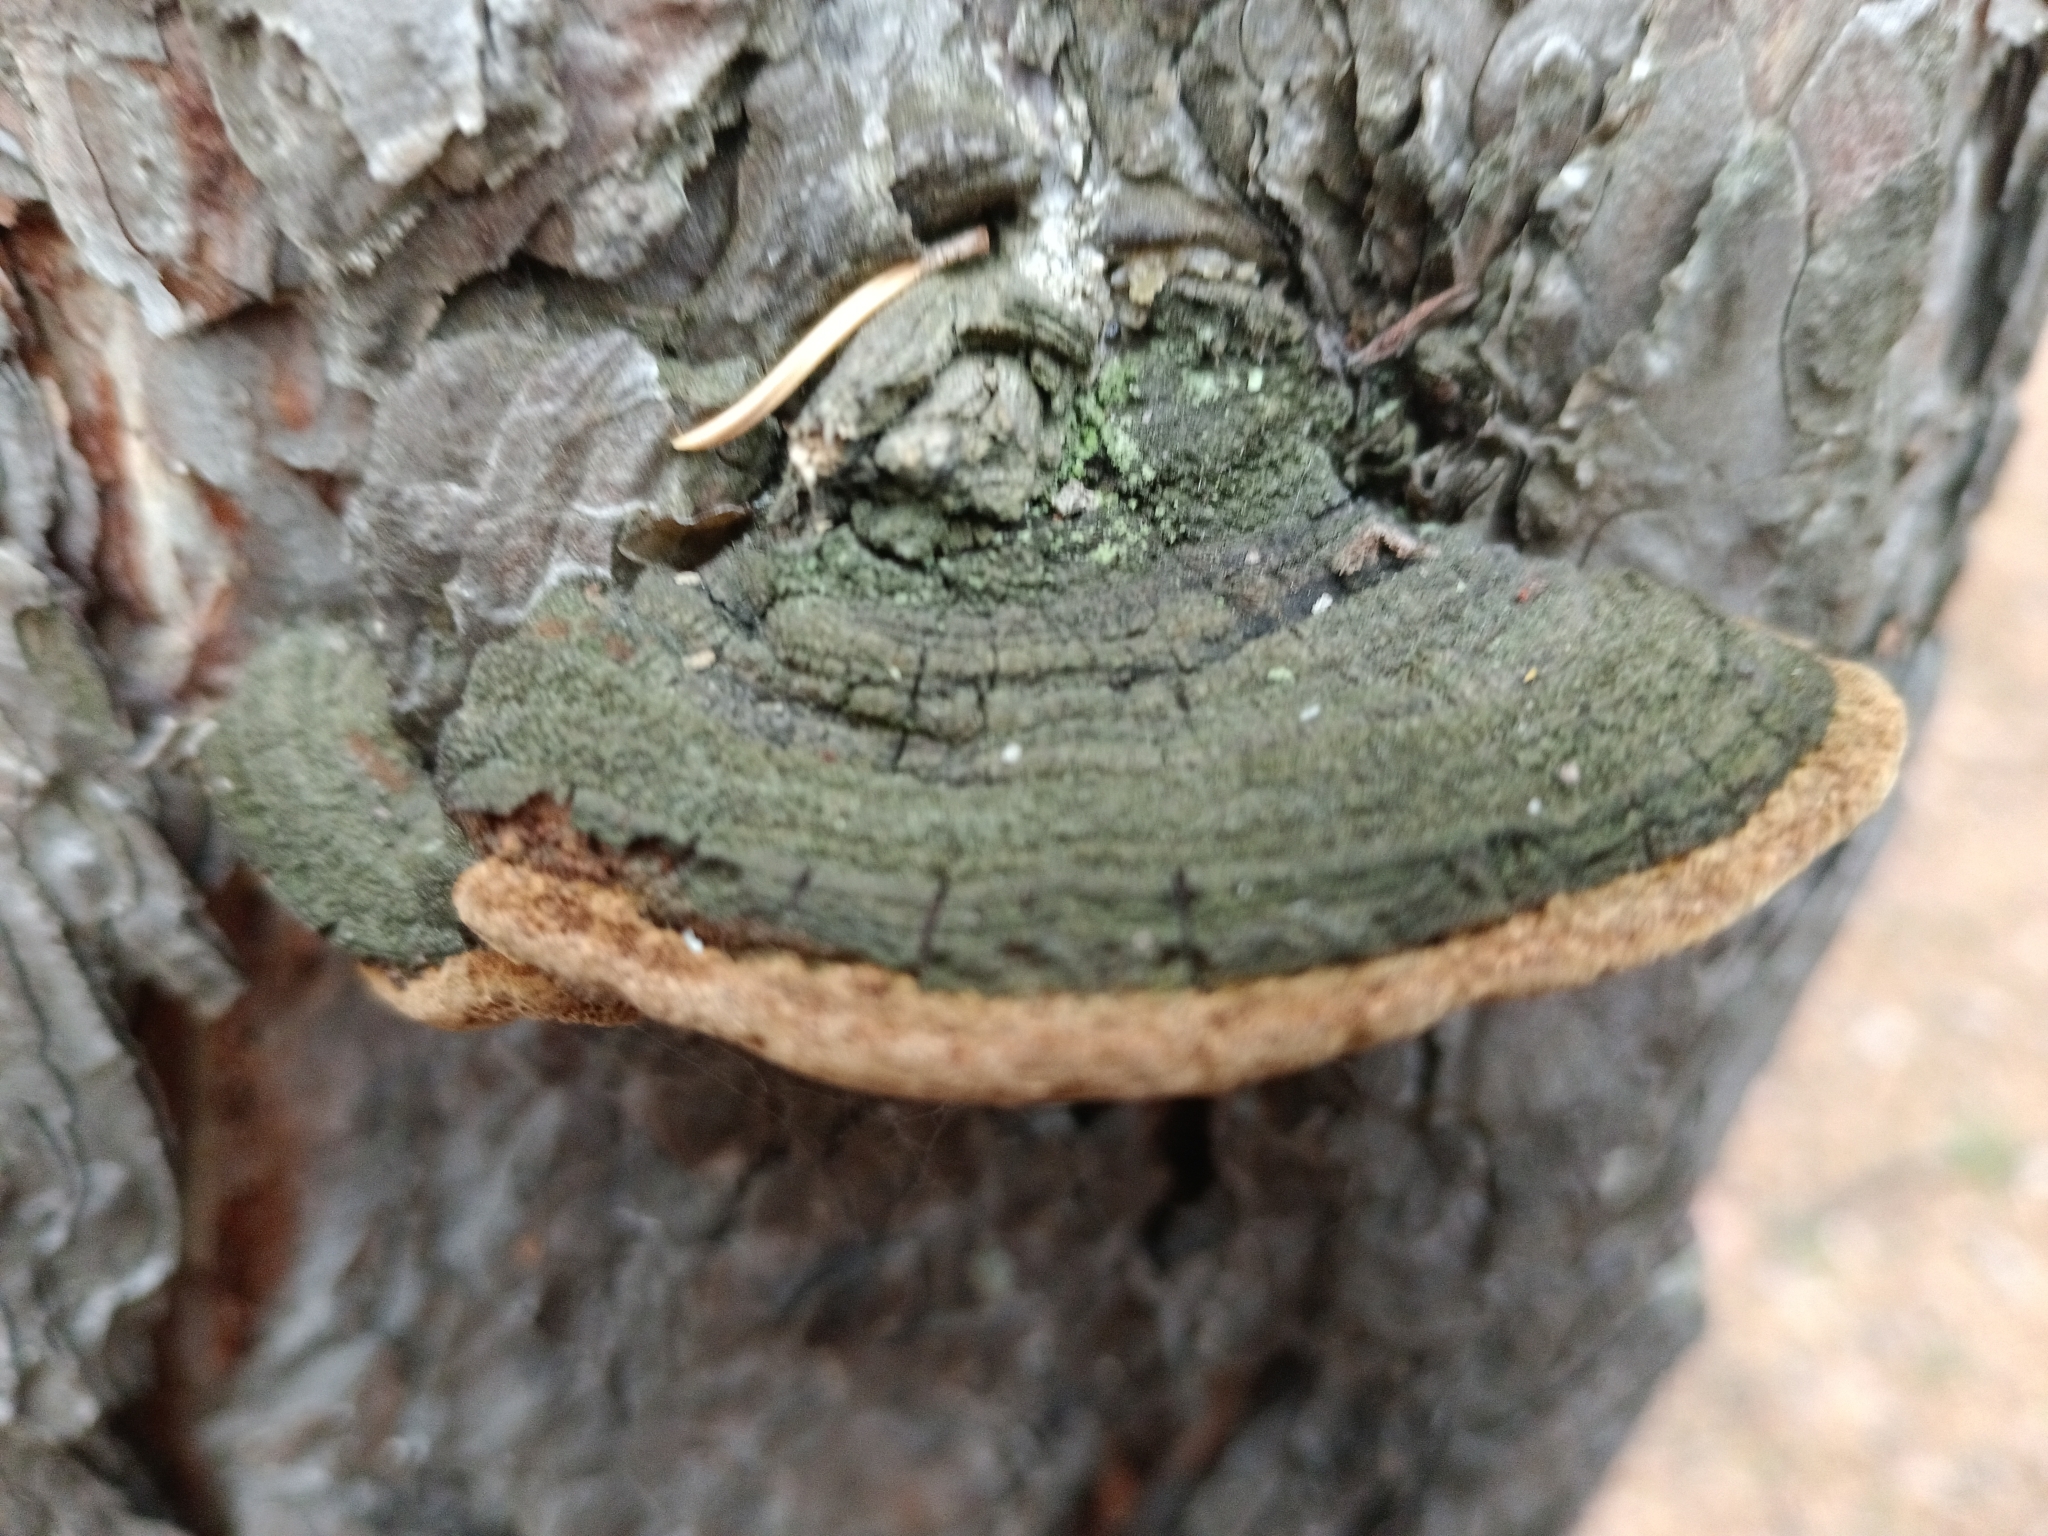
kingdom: Fungi
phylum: Basidiomycota
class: Agaricomycetes
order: Hymenochaetales
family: Hymenochaetaceae
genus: Porodaedalea
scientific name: Porodaedalea pini
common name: Pine bracket
